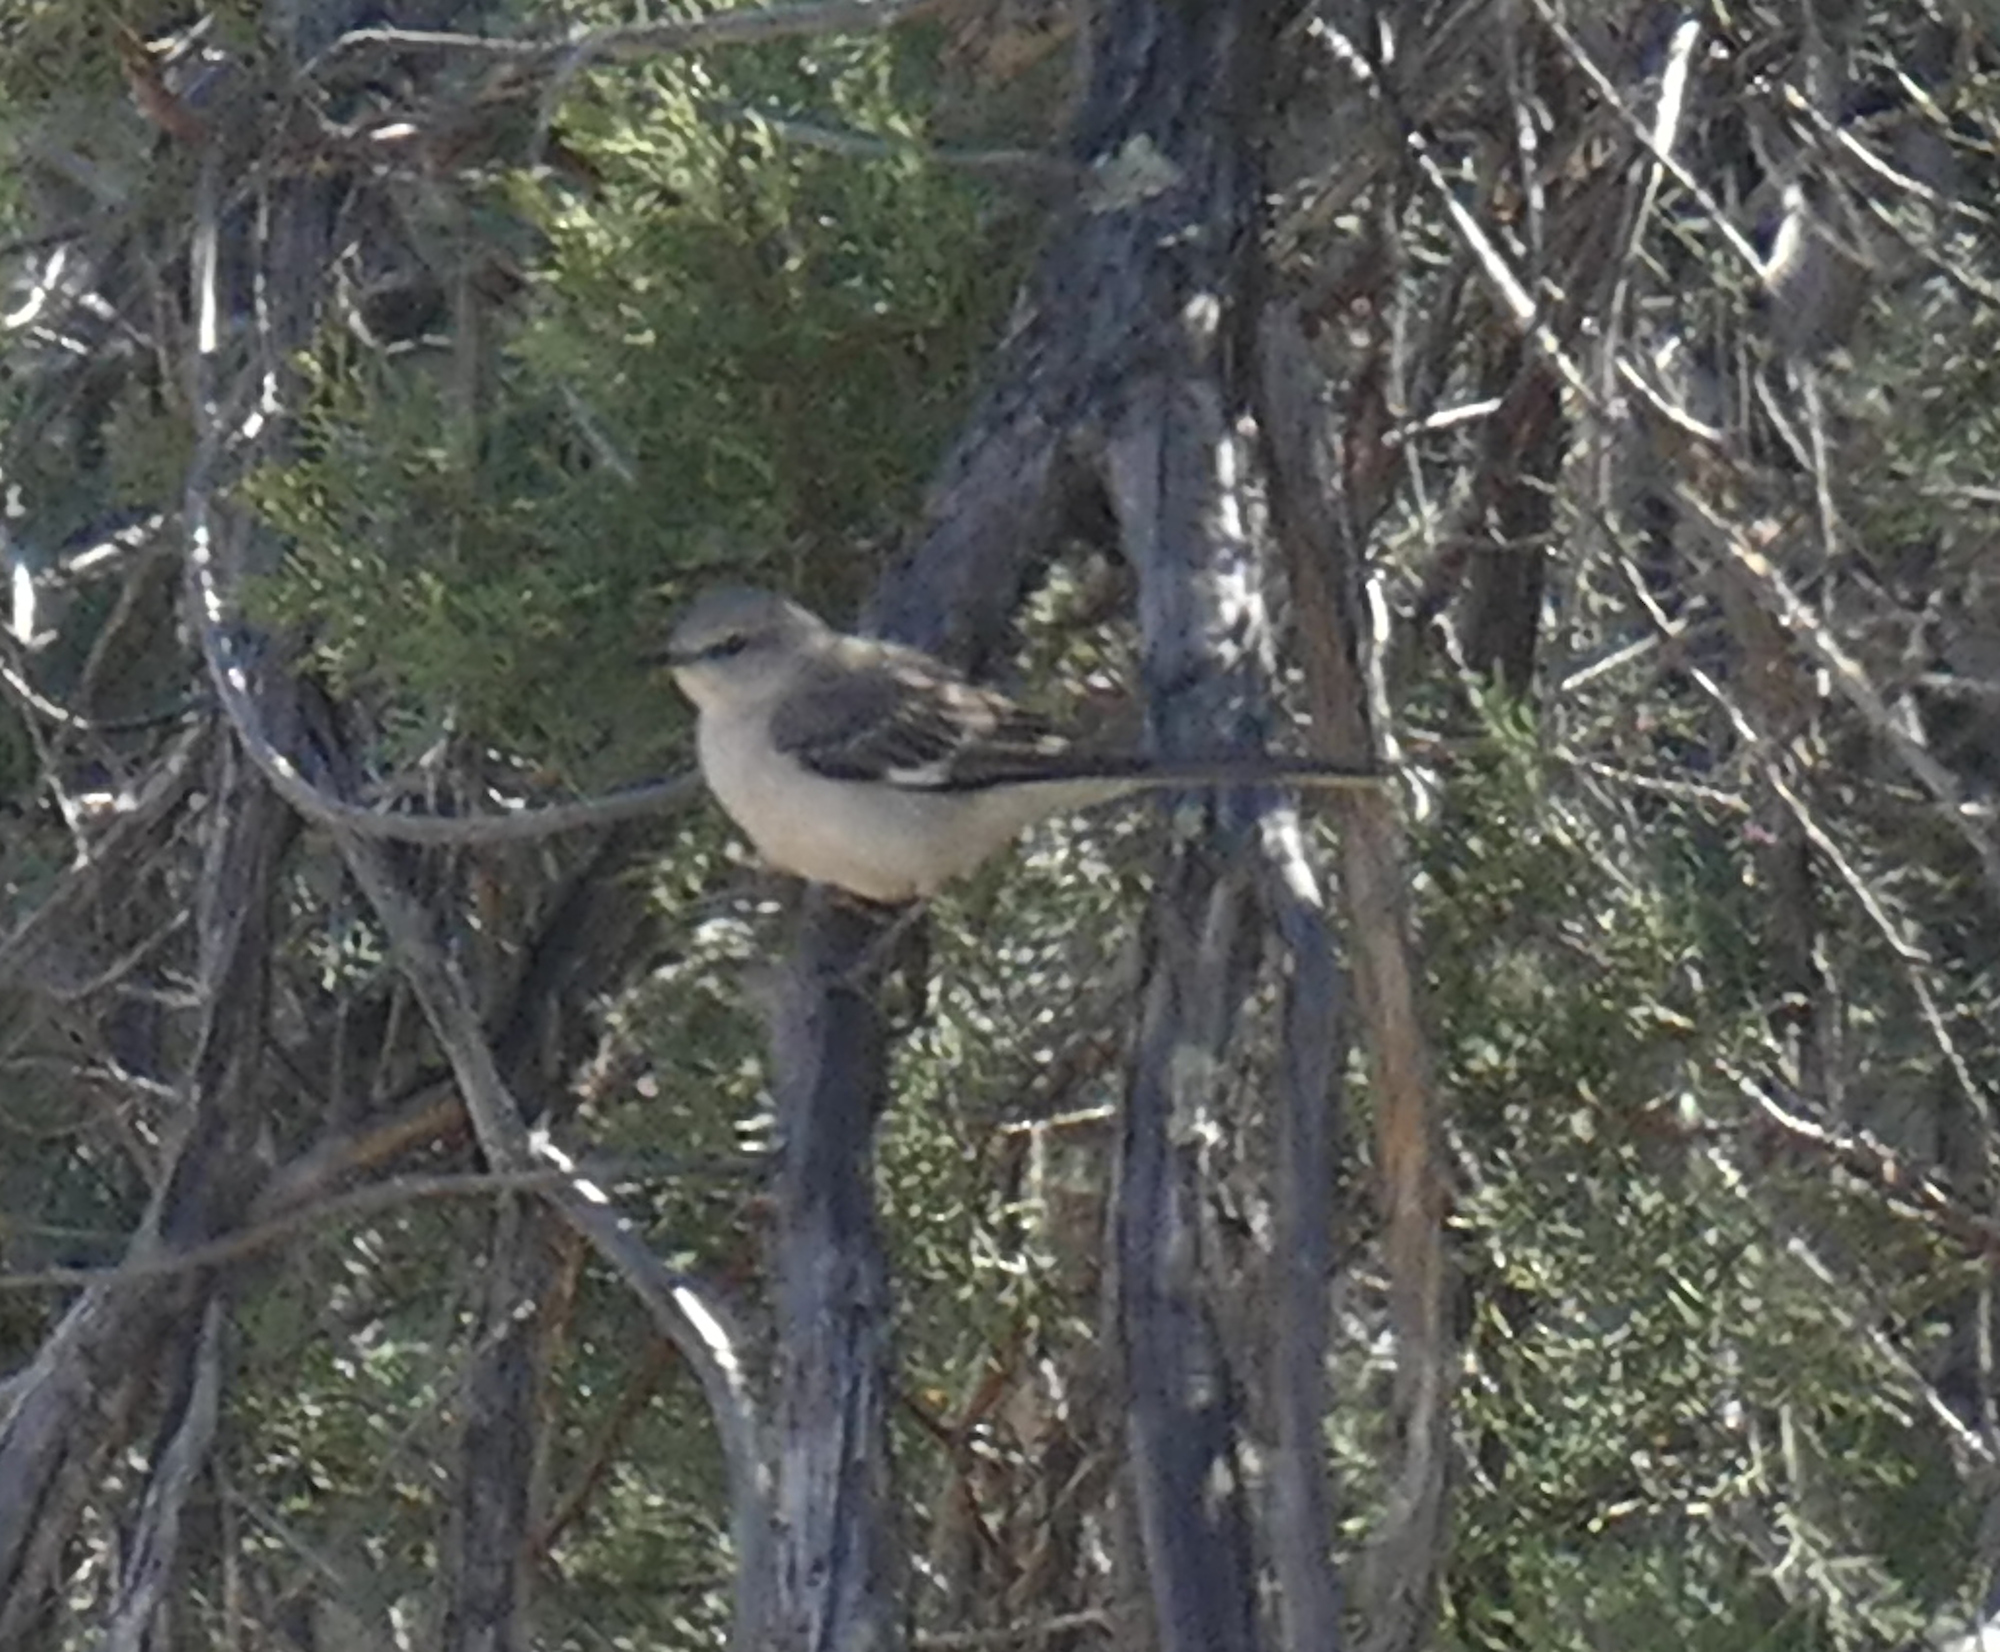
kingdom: Animalia
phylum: Chordata
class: Aves
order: Passeriformes
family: Mimidae
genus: Mimus
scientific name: Mimus polyglottos
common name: Northern mockingbird
